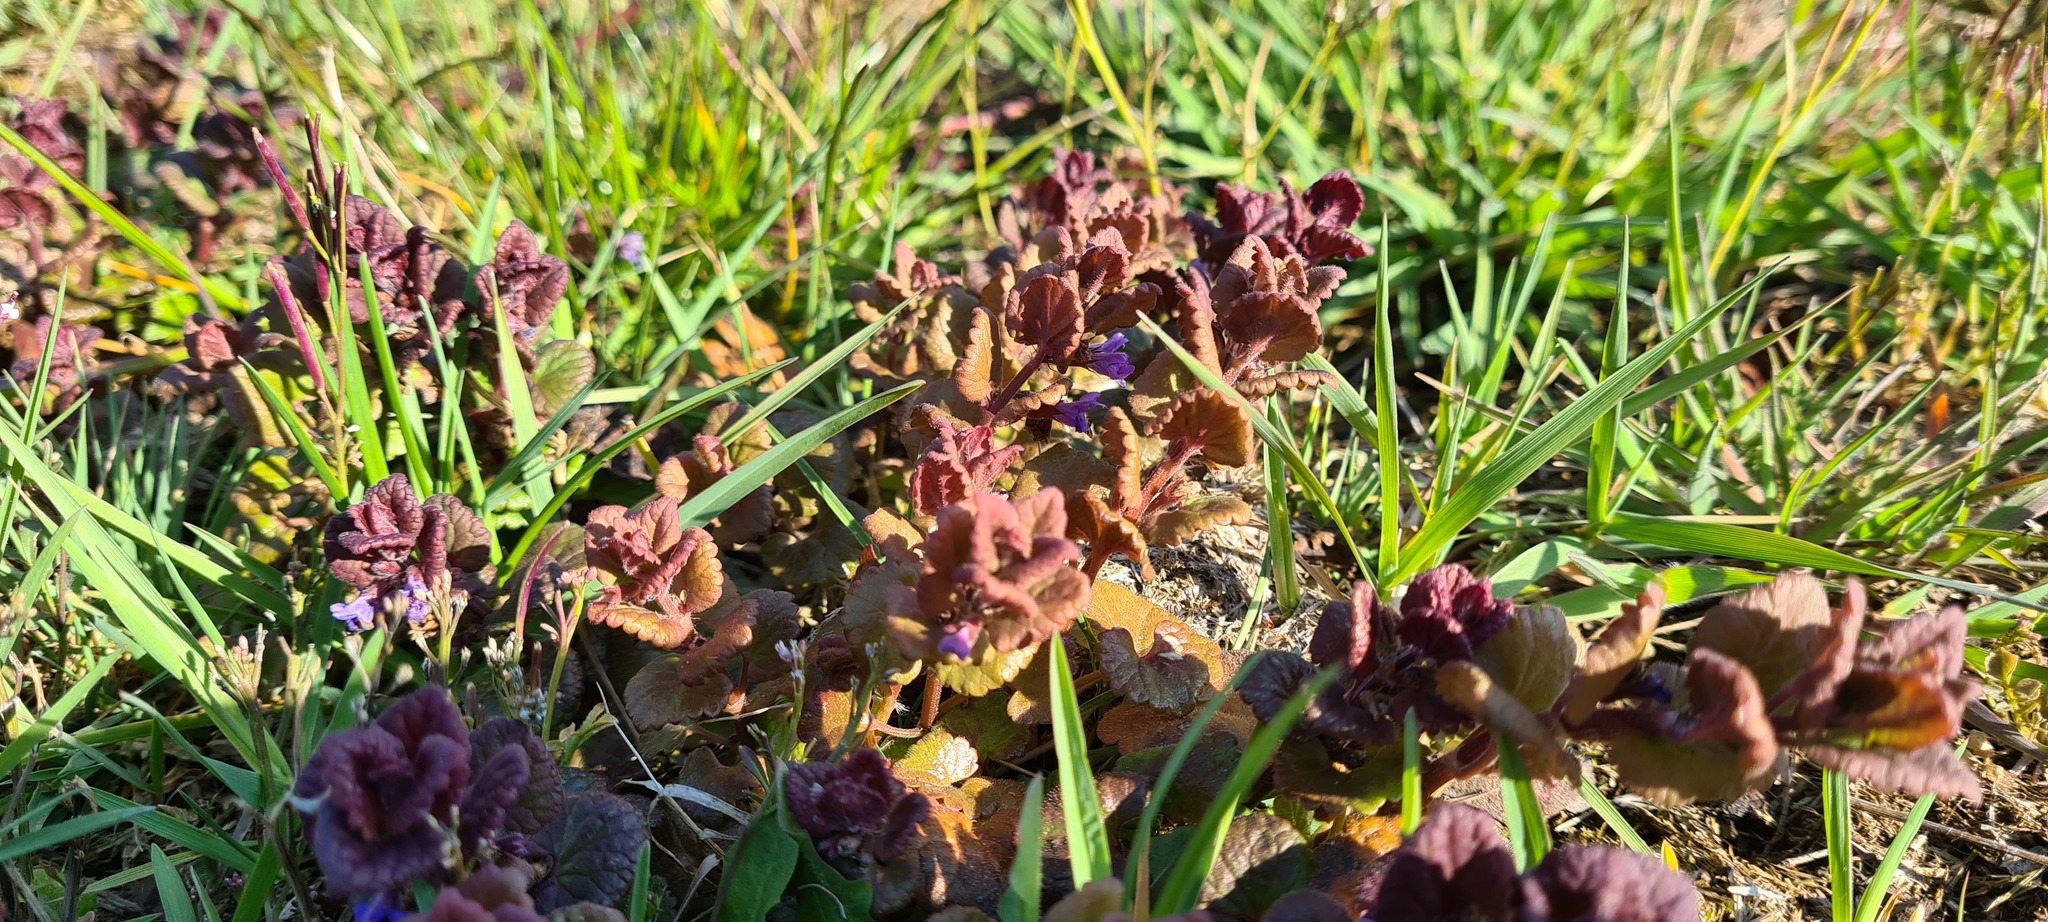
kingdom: Plantae
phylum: Tracheophyta
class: Magnoliopsida
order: Lamiales
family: Lamiaceae
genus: Glechoma
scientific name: Glechoma hederacea
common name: Ground ivy
